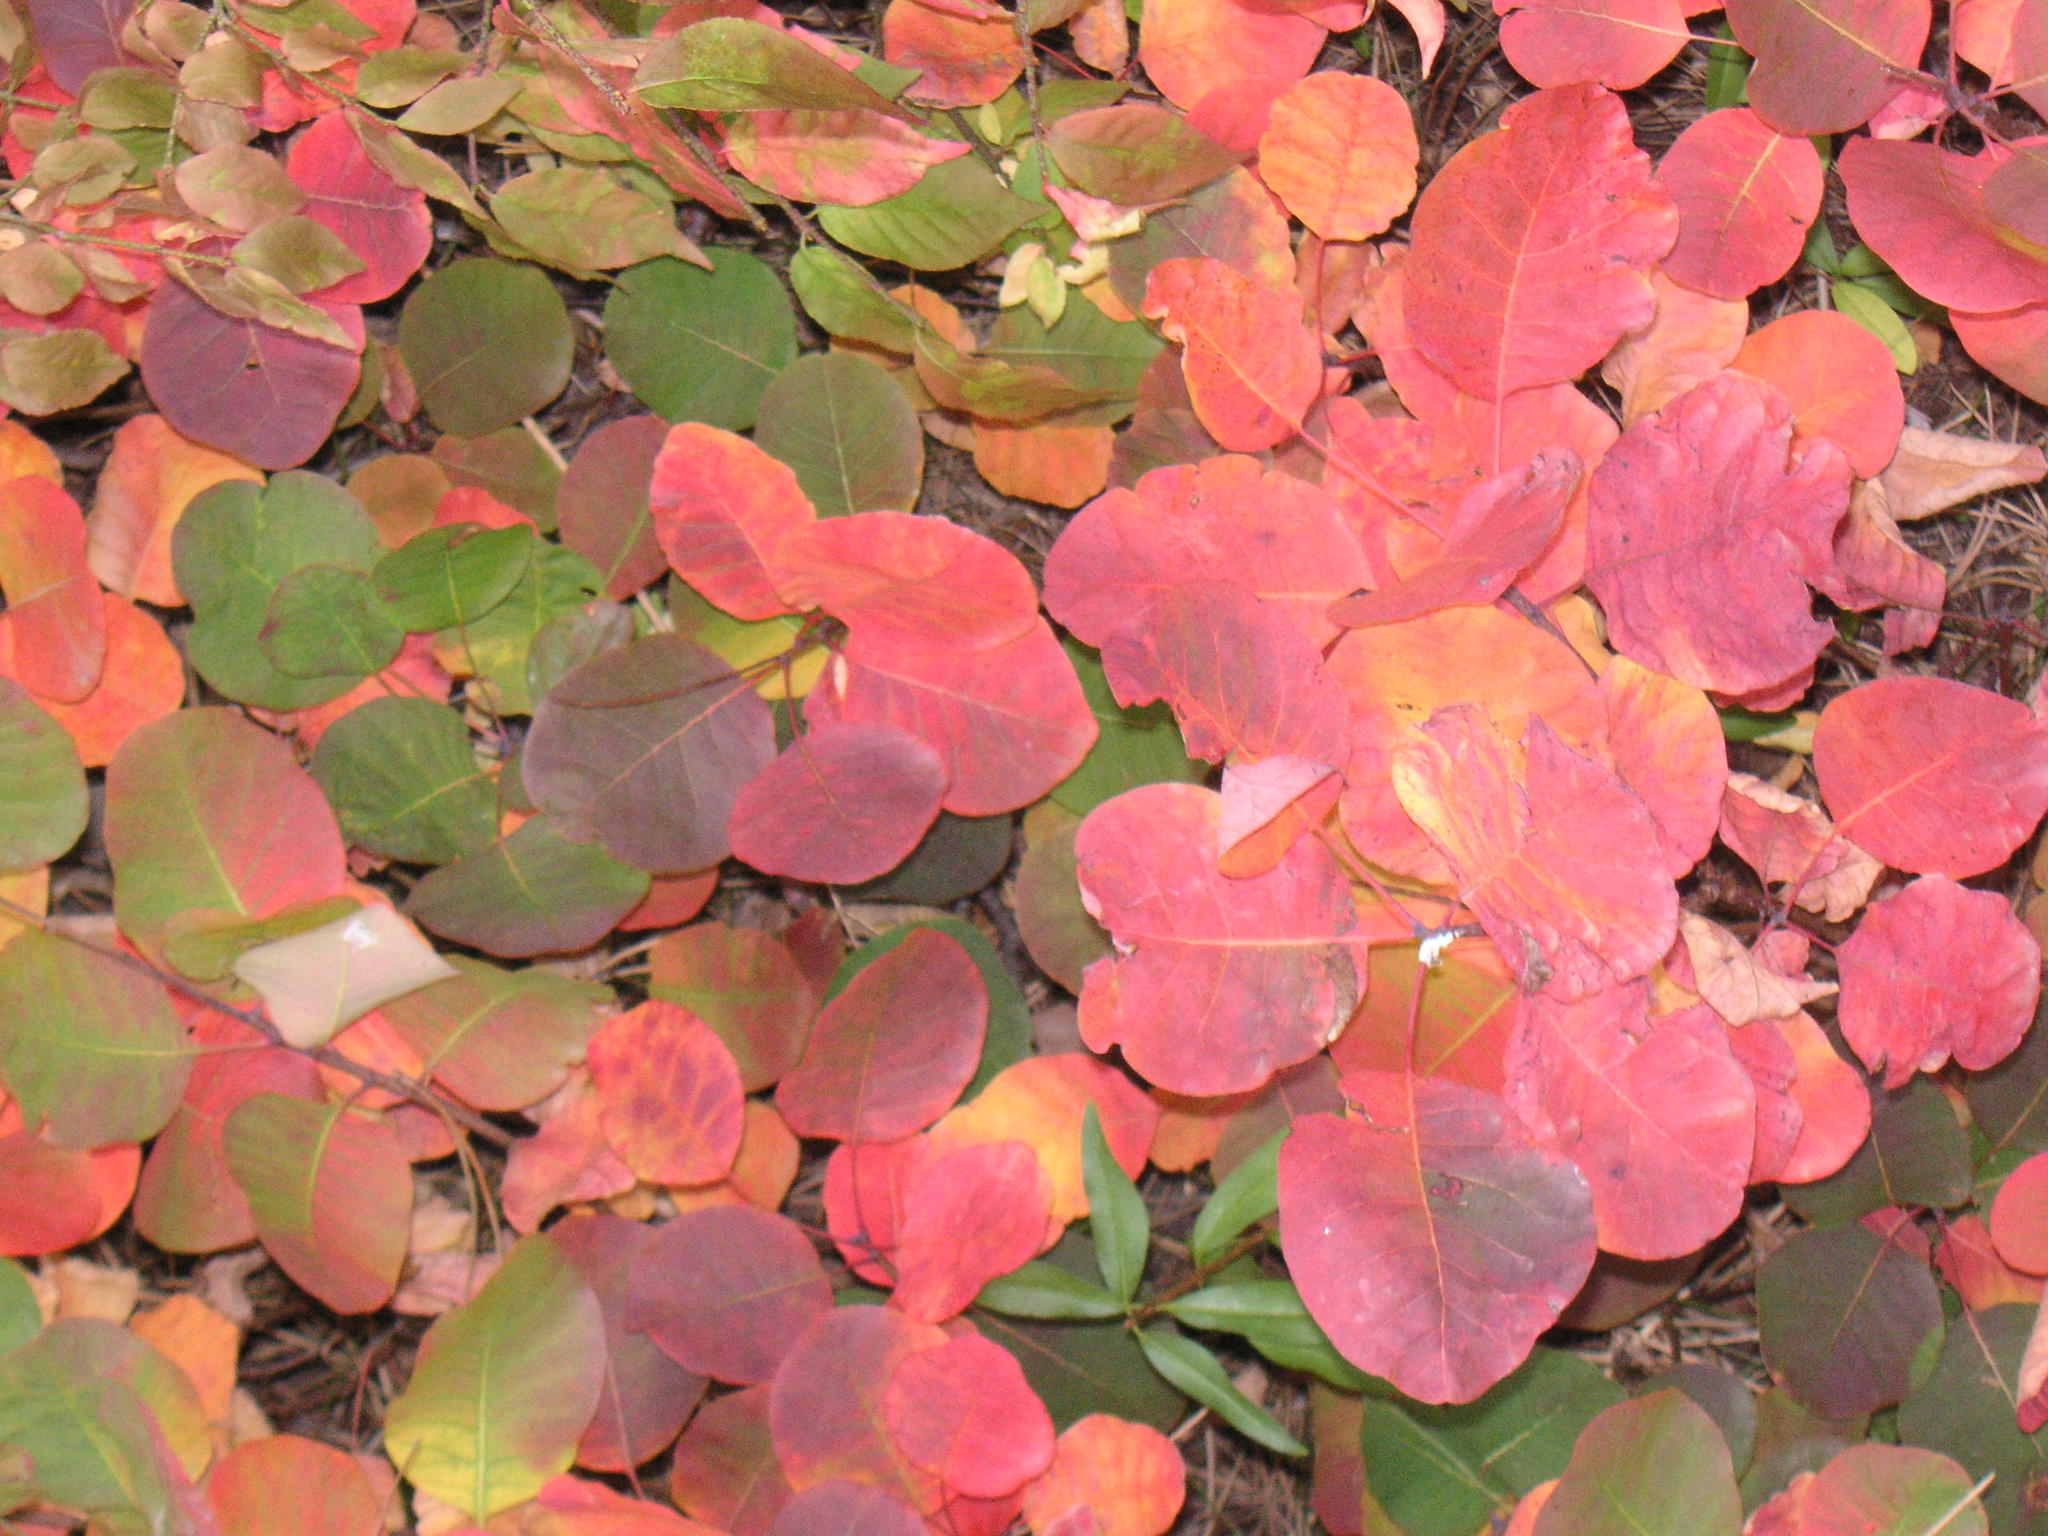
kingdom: Plantae
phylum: Tracheophyta
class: Magnoliopsida
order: Sapindales
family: Anacardiaceae
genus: Cotinus
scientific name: Cotinus coggygria
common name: Smoke-tree
